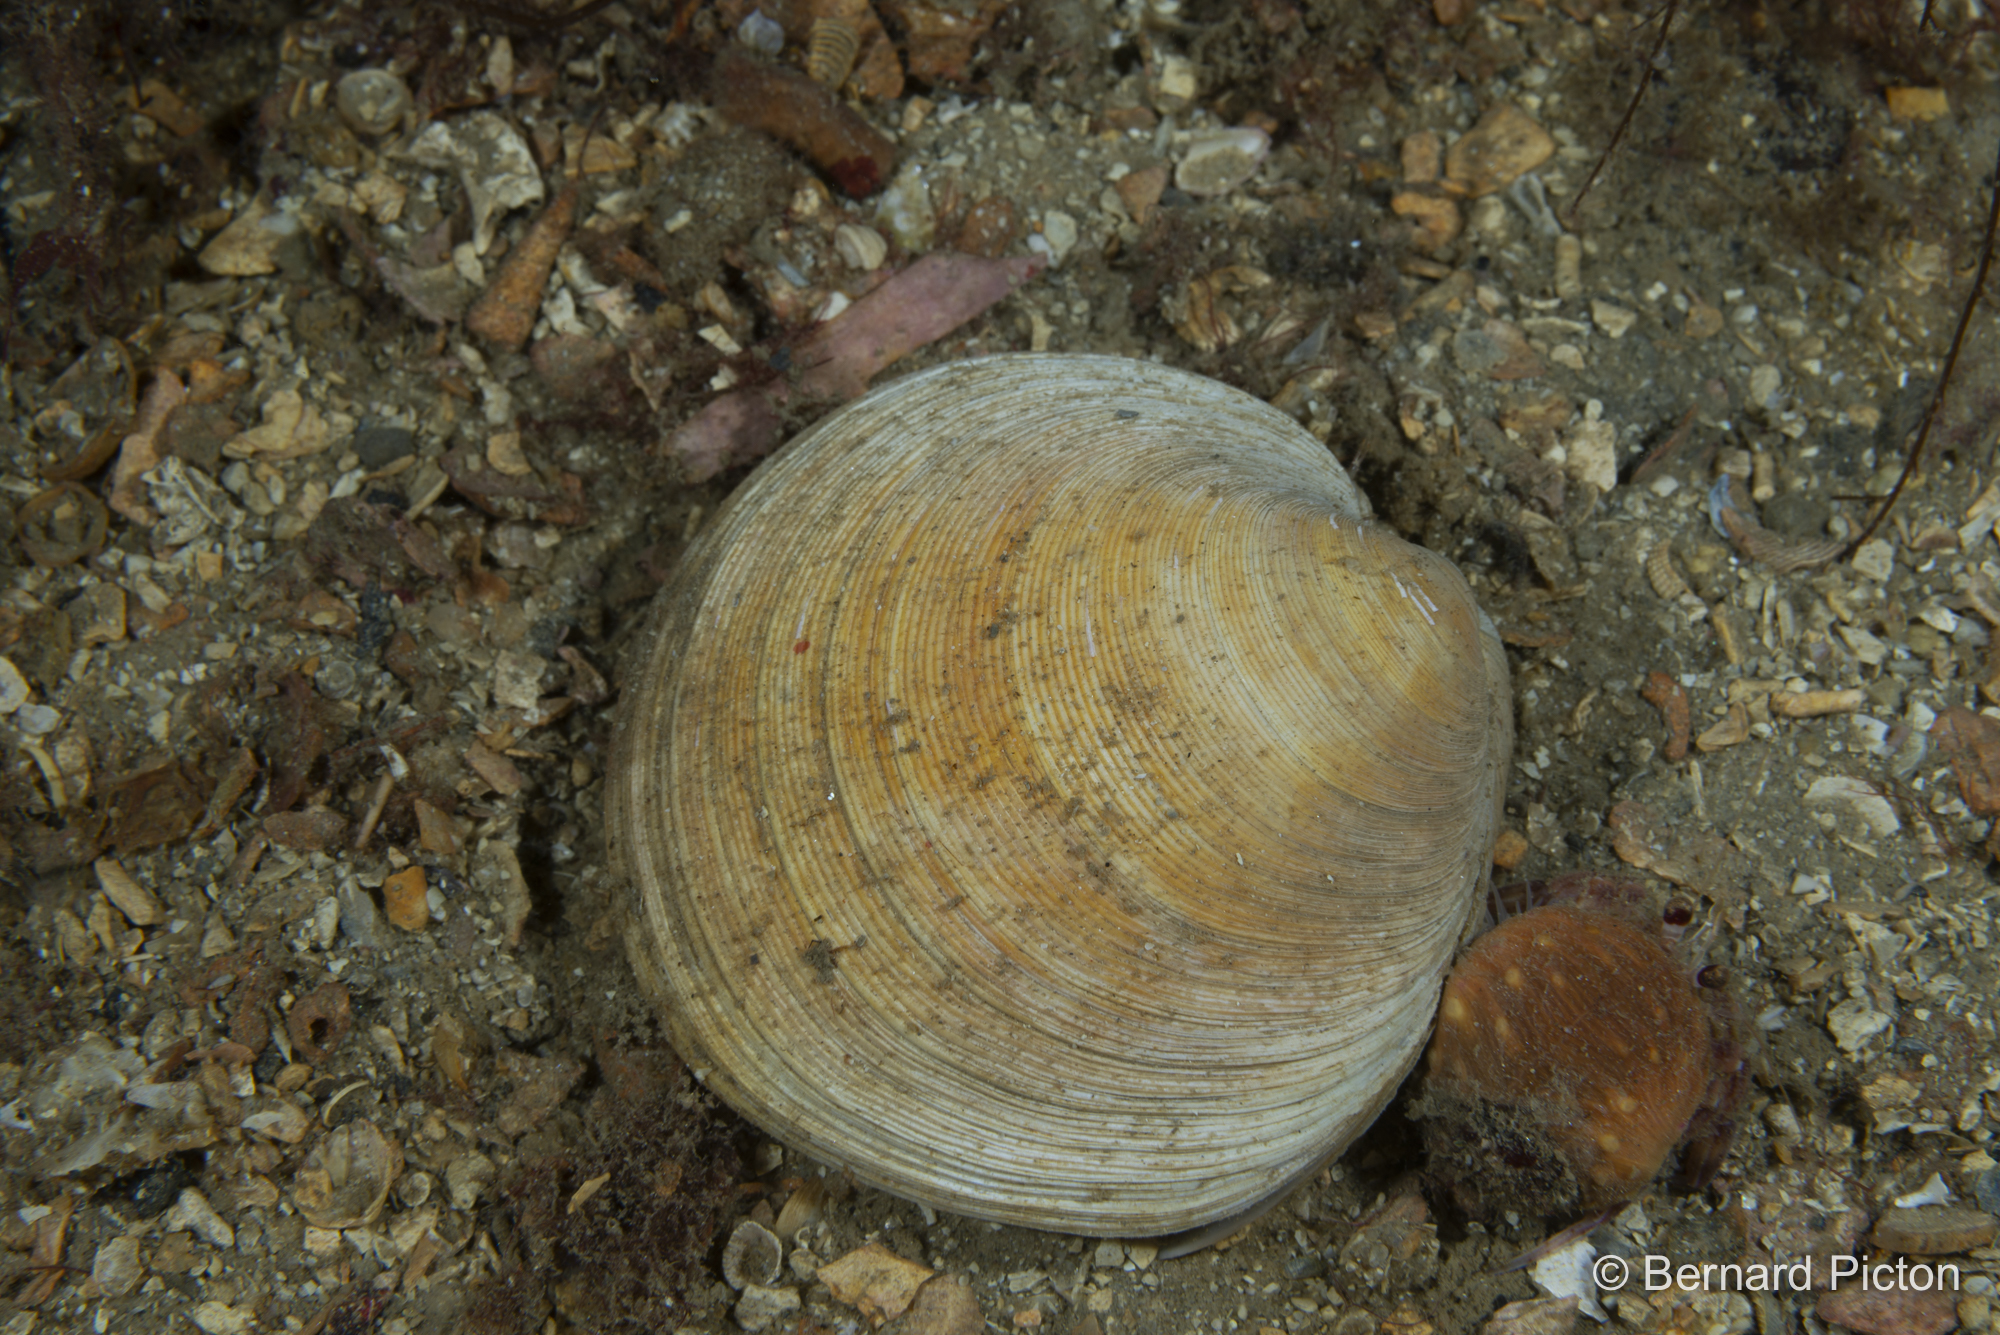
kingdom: Animalia
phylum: Mollusca
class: Bivalvia
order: Venerida
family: Veneridae
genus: Dosinia
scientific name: Dosinia exoleta
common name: Rayed artemis
